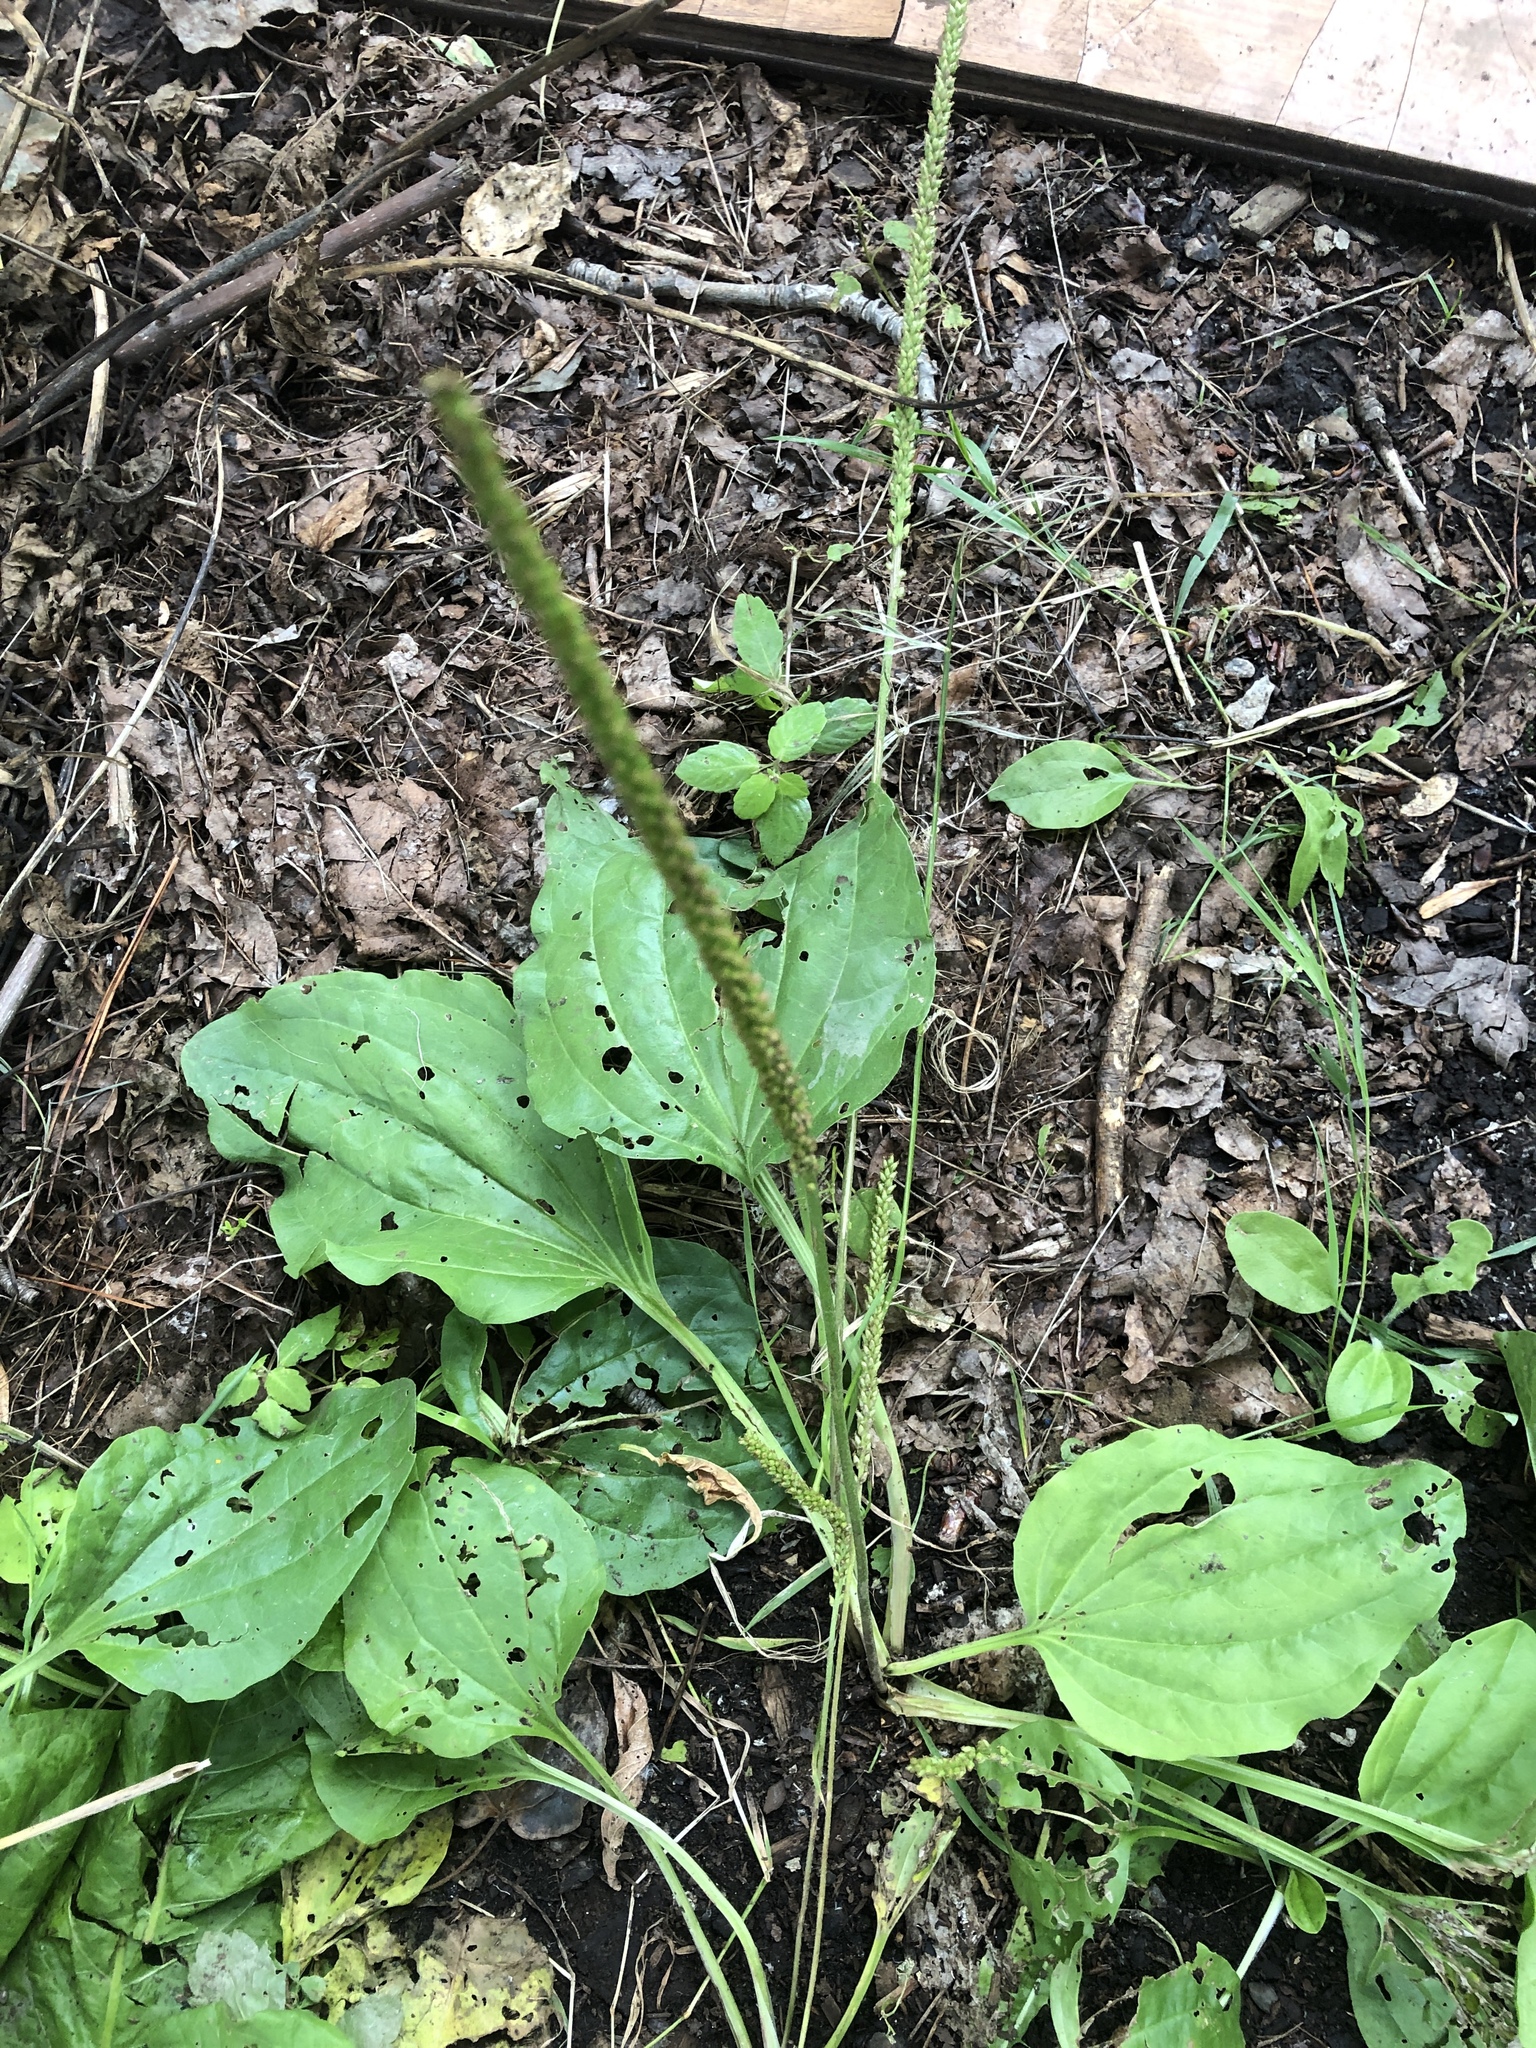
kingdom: Plantae
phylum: Tracheophyta
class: Magnoliopsida
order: Lamiales
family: Plantaginaceae
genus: Plantago
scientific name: Plantago major
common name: Common plantain
